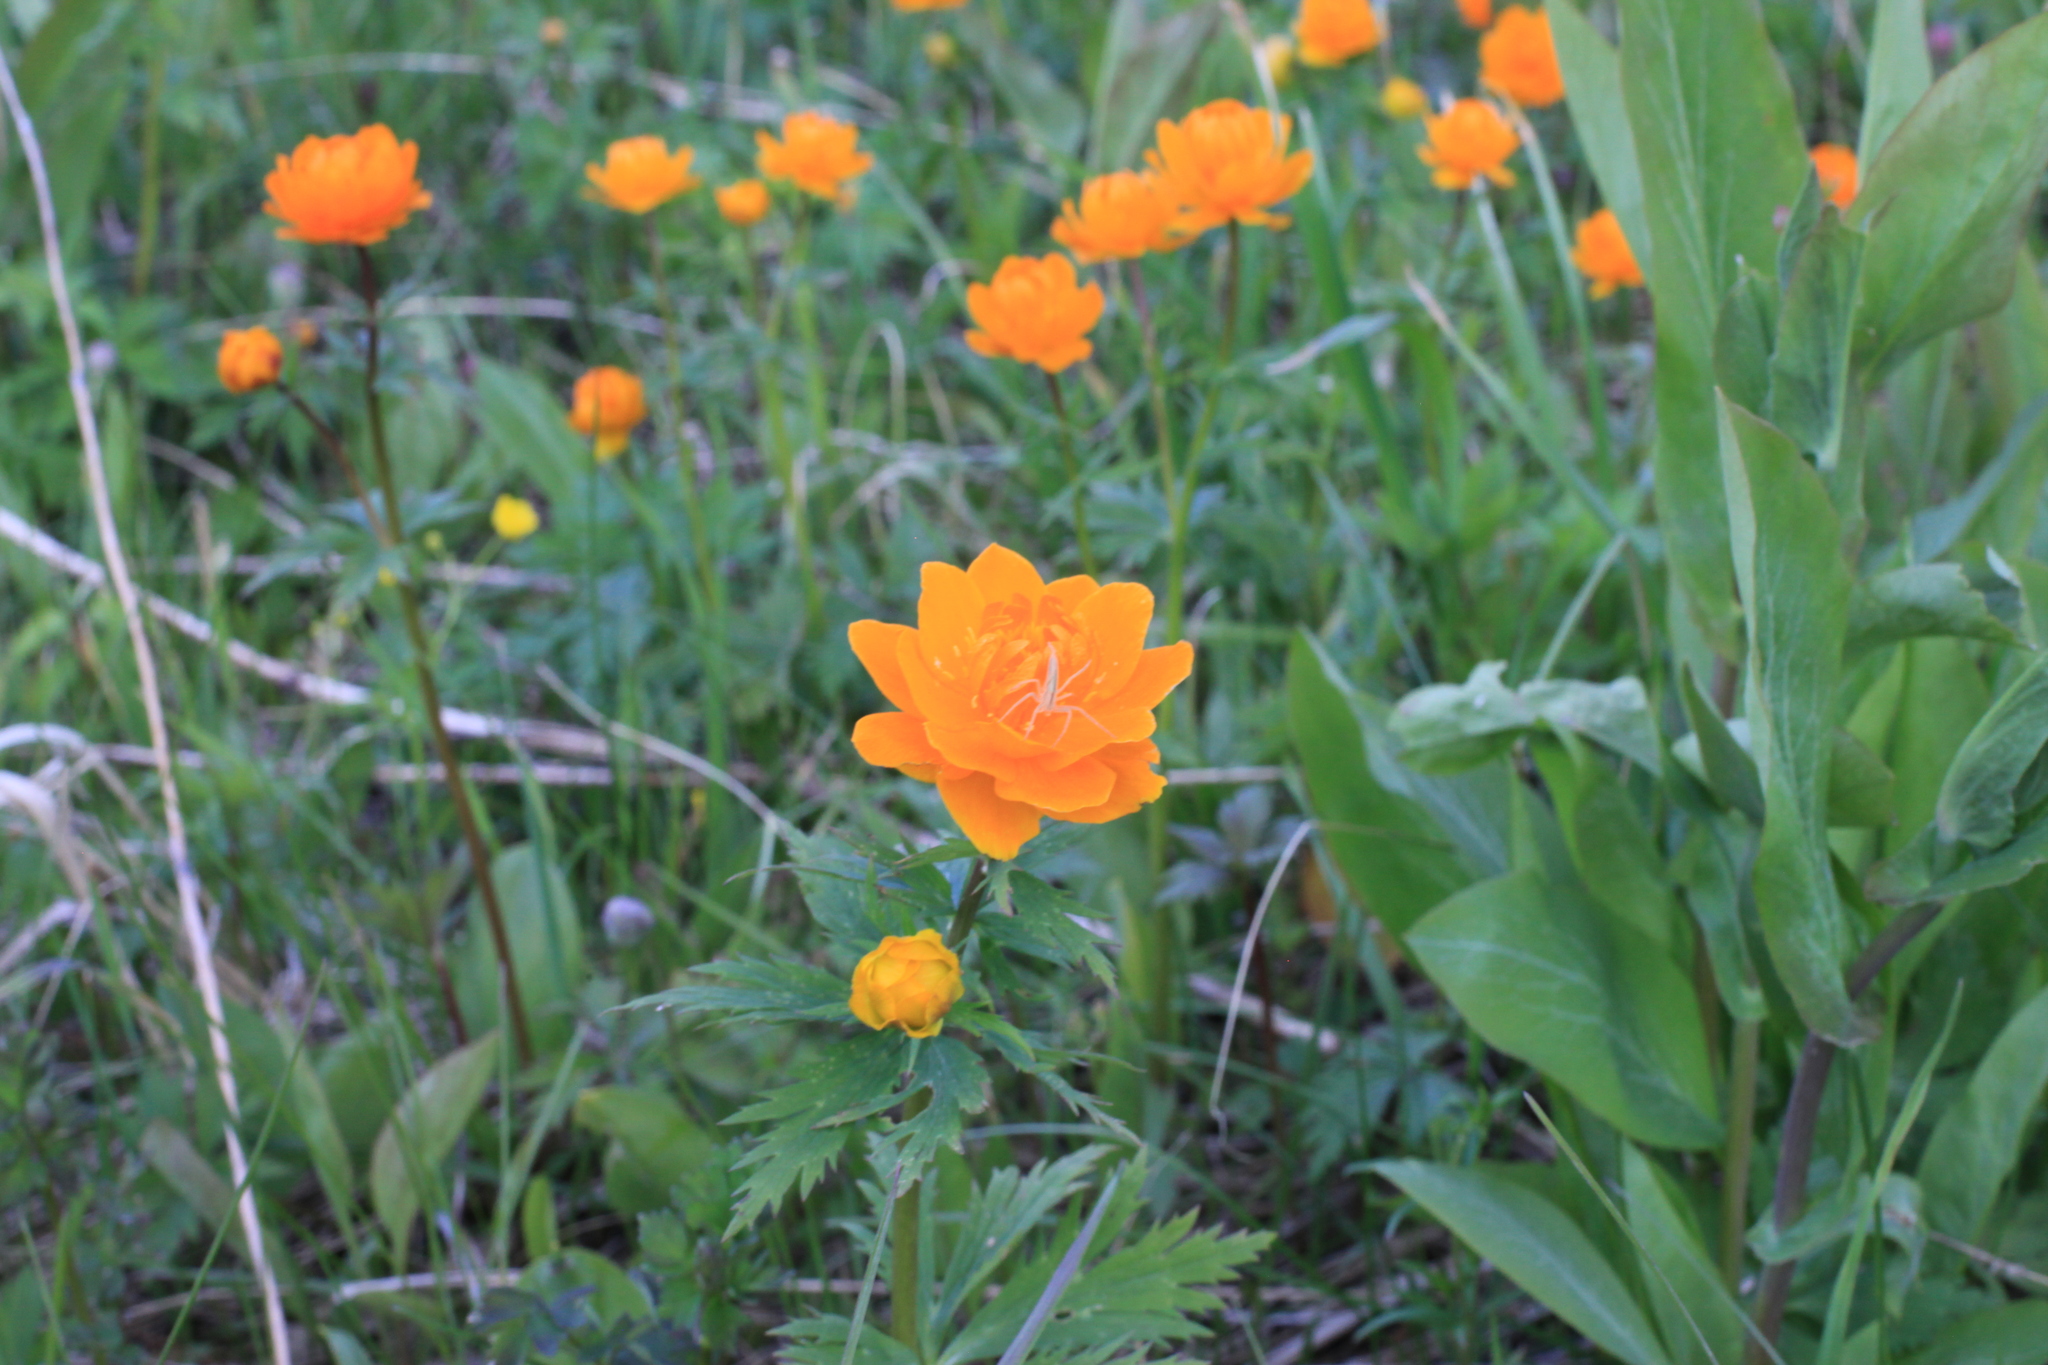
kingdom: Plantae
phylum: Tracheophyta
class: Magnoliopsida
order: Ranunculales
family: Ranunculaceae
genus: Trollius
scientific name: Trollius asiaticus
